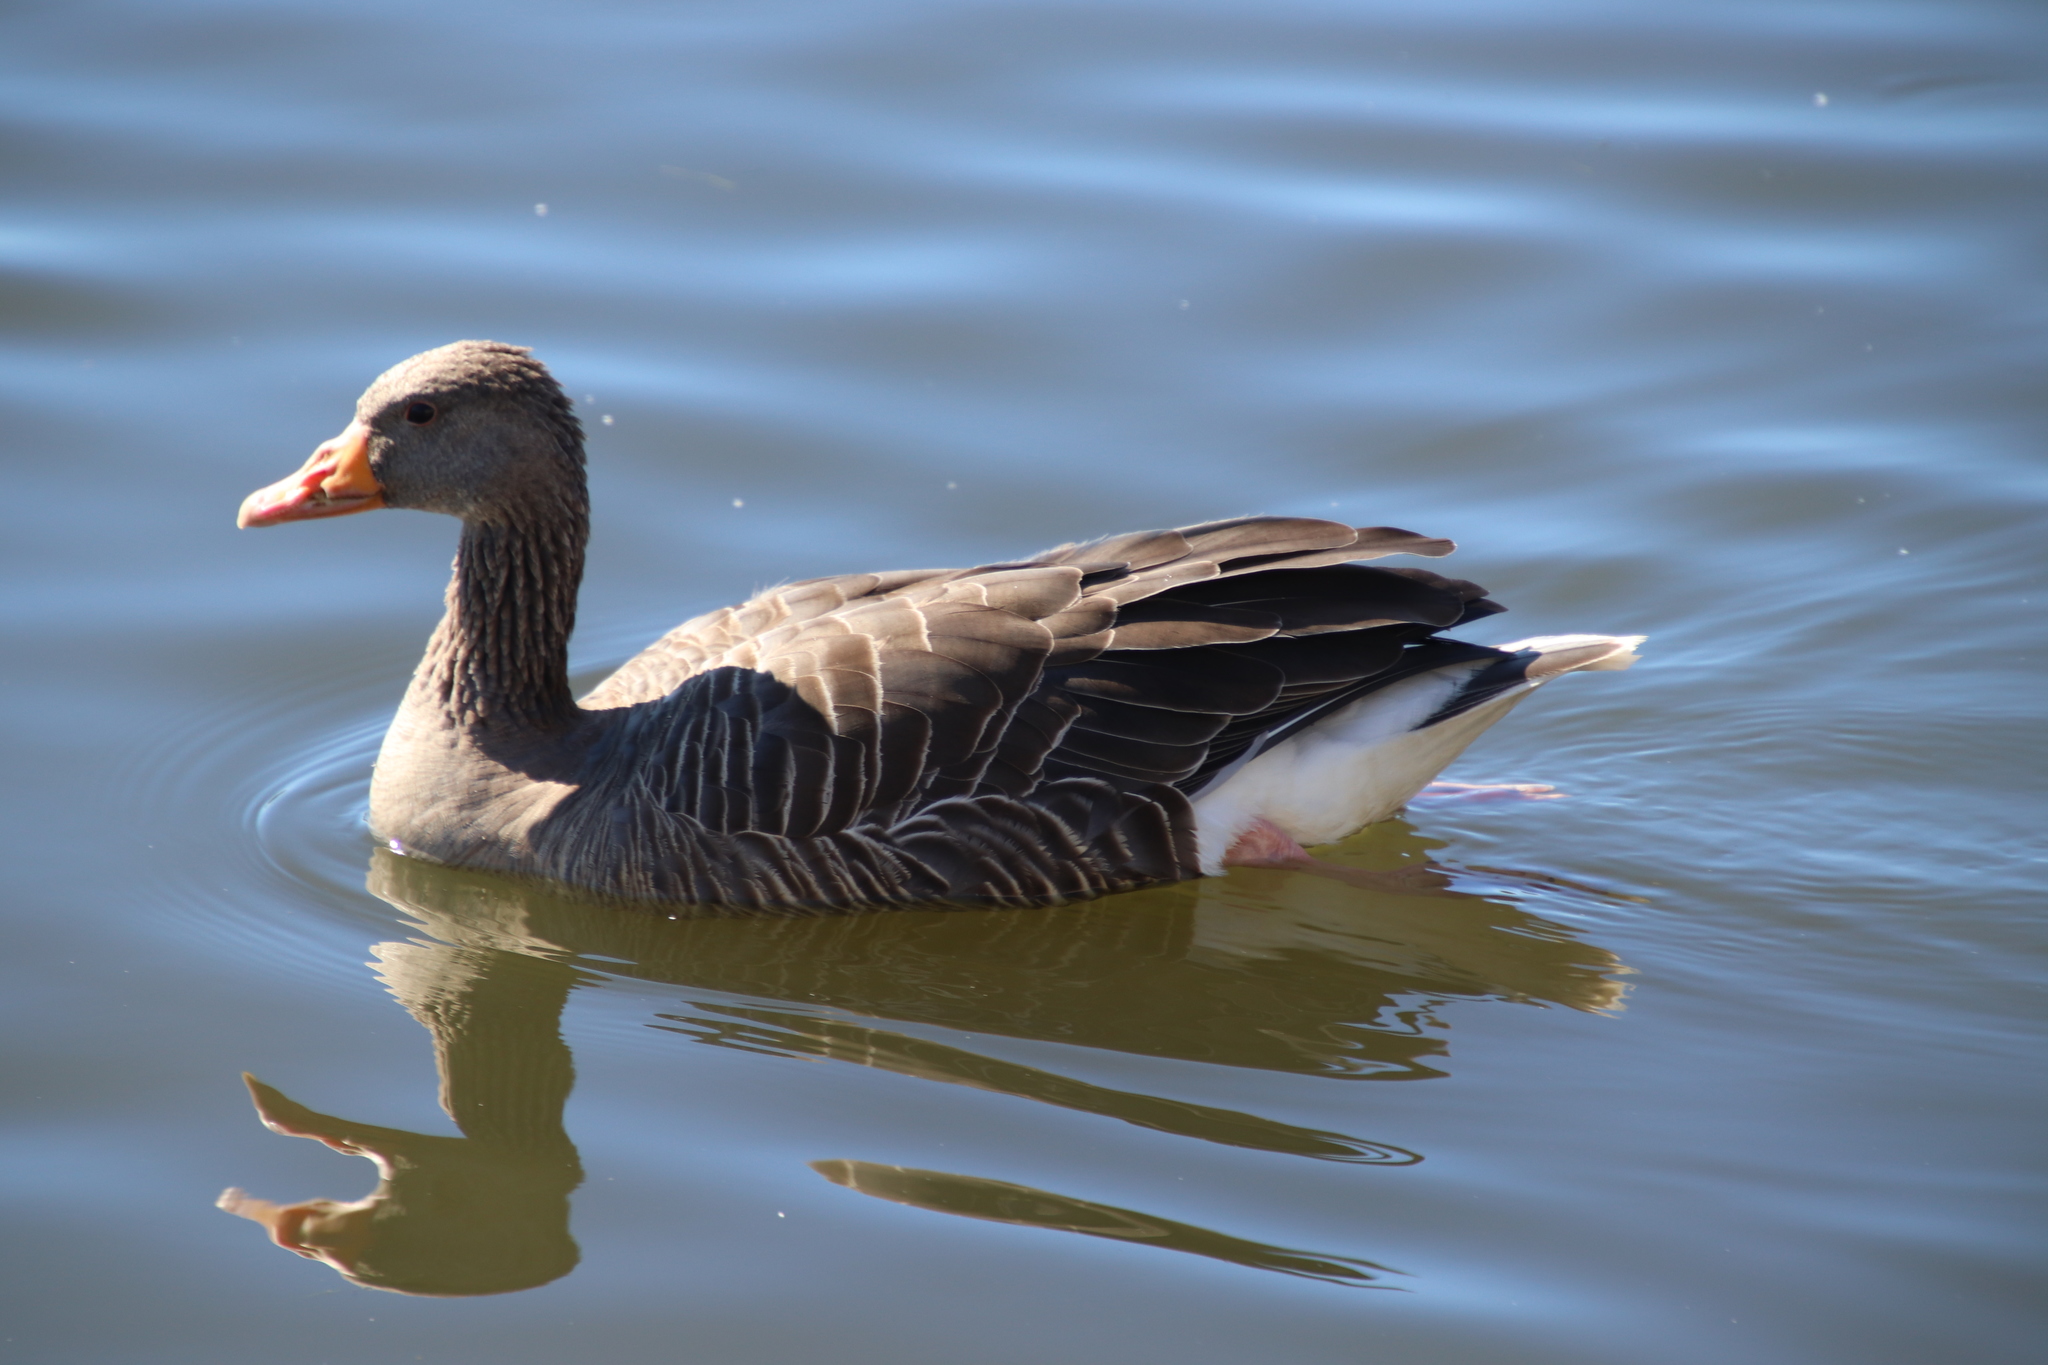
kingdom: Animalia
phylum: Chordata
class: Aves
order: Anseriformes
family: Anatidae
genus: Anser
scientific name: Anser anser
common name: Greylag goose
